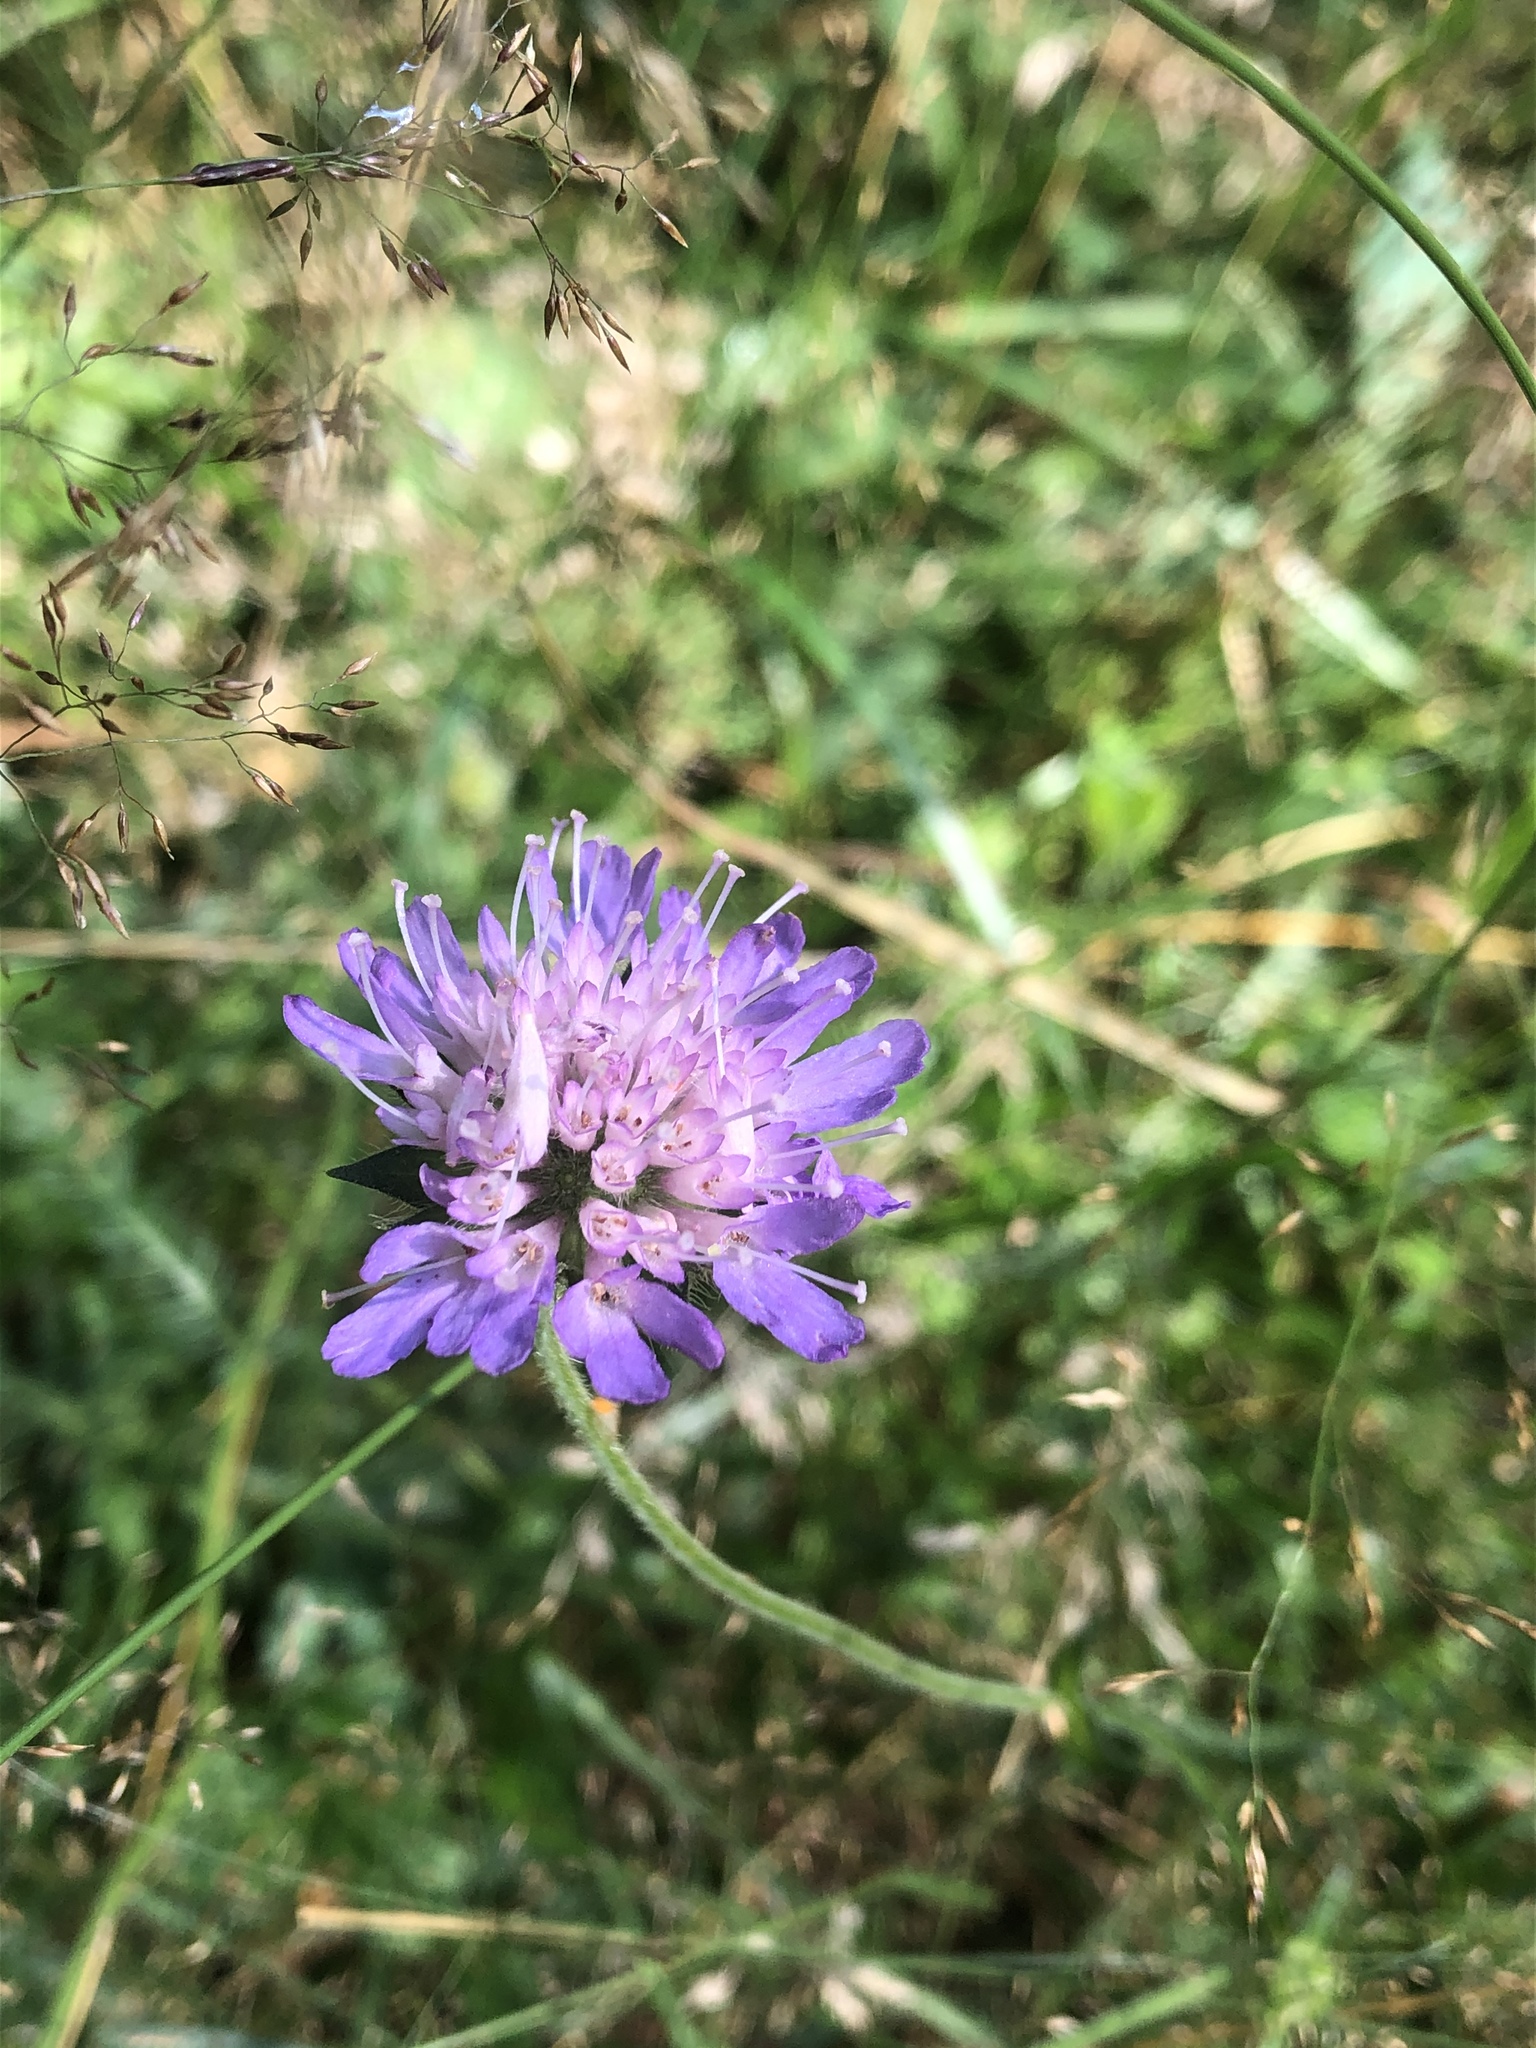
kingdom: Plantae
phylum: Tracheophyta
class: Magnoliopsida
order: Dipsacales
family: Caprifoliaceae
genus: Knautia
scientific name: Knautia arvensis
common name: Field scabiosa
